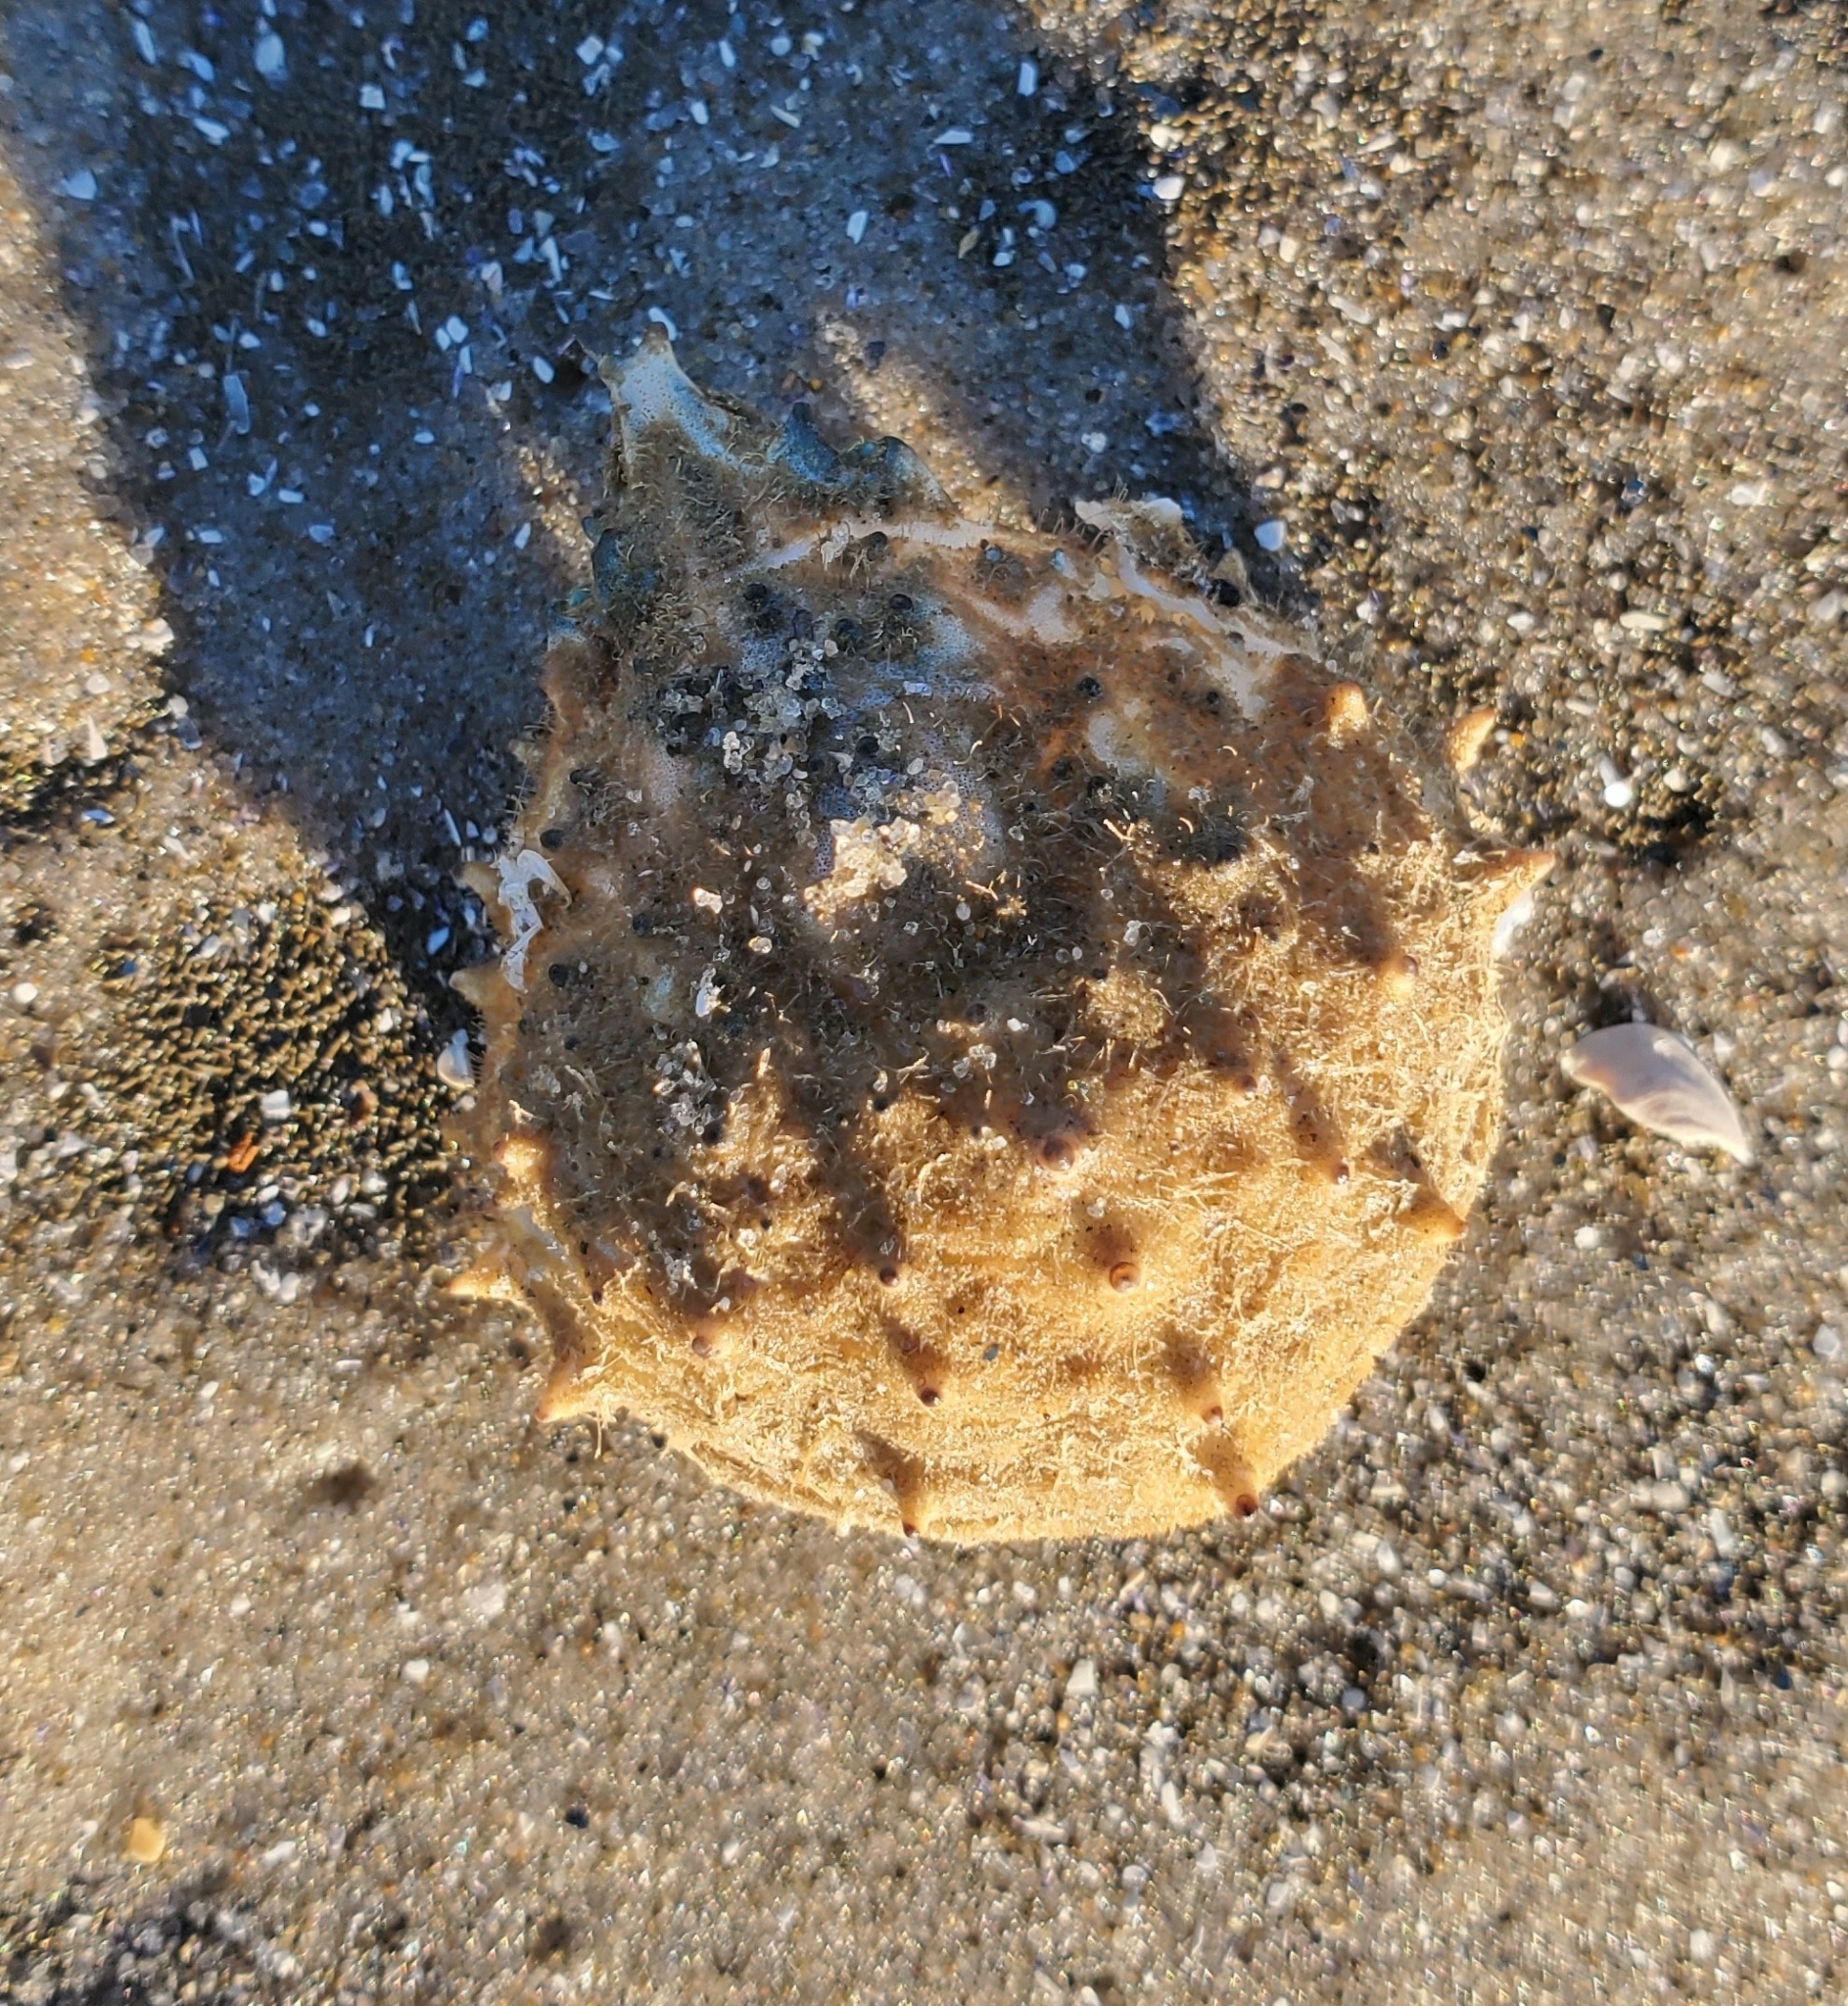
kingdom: Animalia
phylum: Arthropoda
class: Malacostraca
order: Decapoda
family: Epialtidae
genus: Libinia
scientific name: Libinia emarginata
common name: Common spider crab
